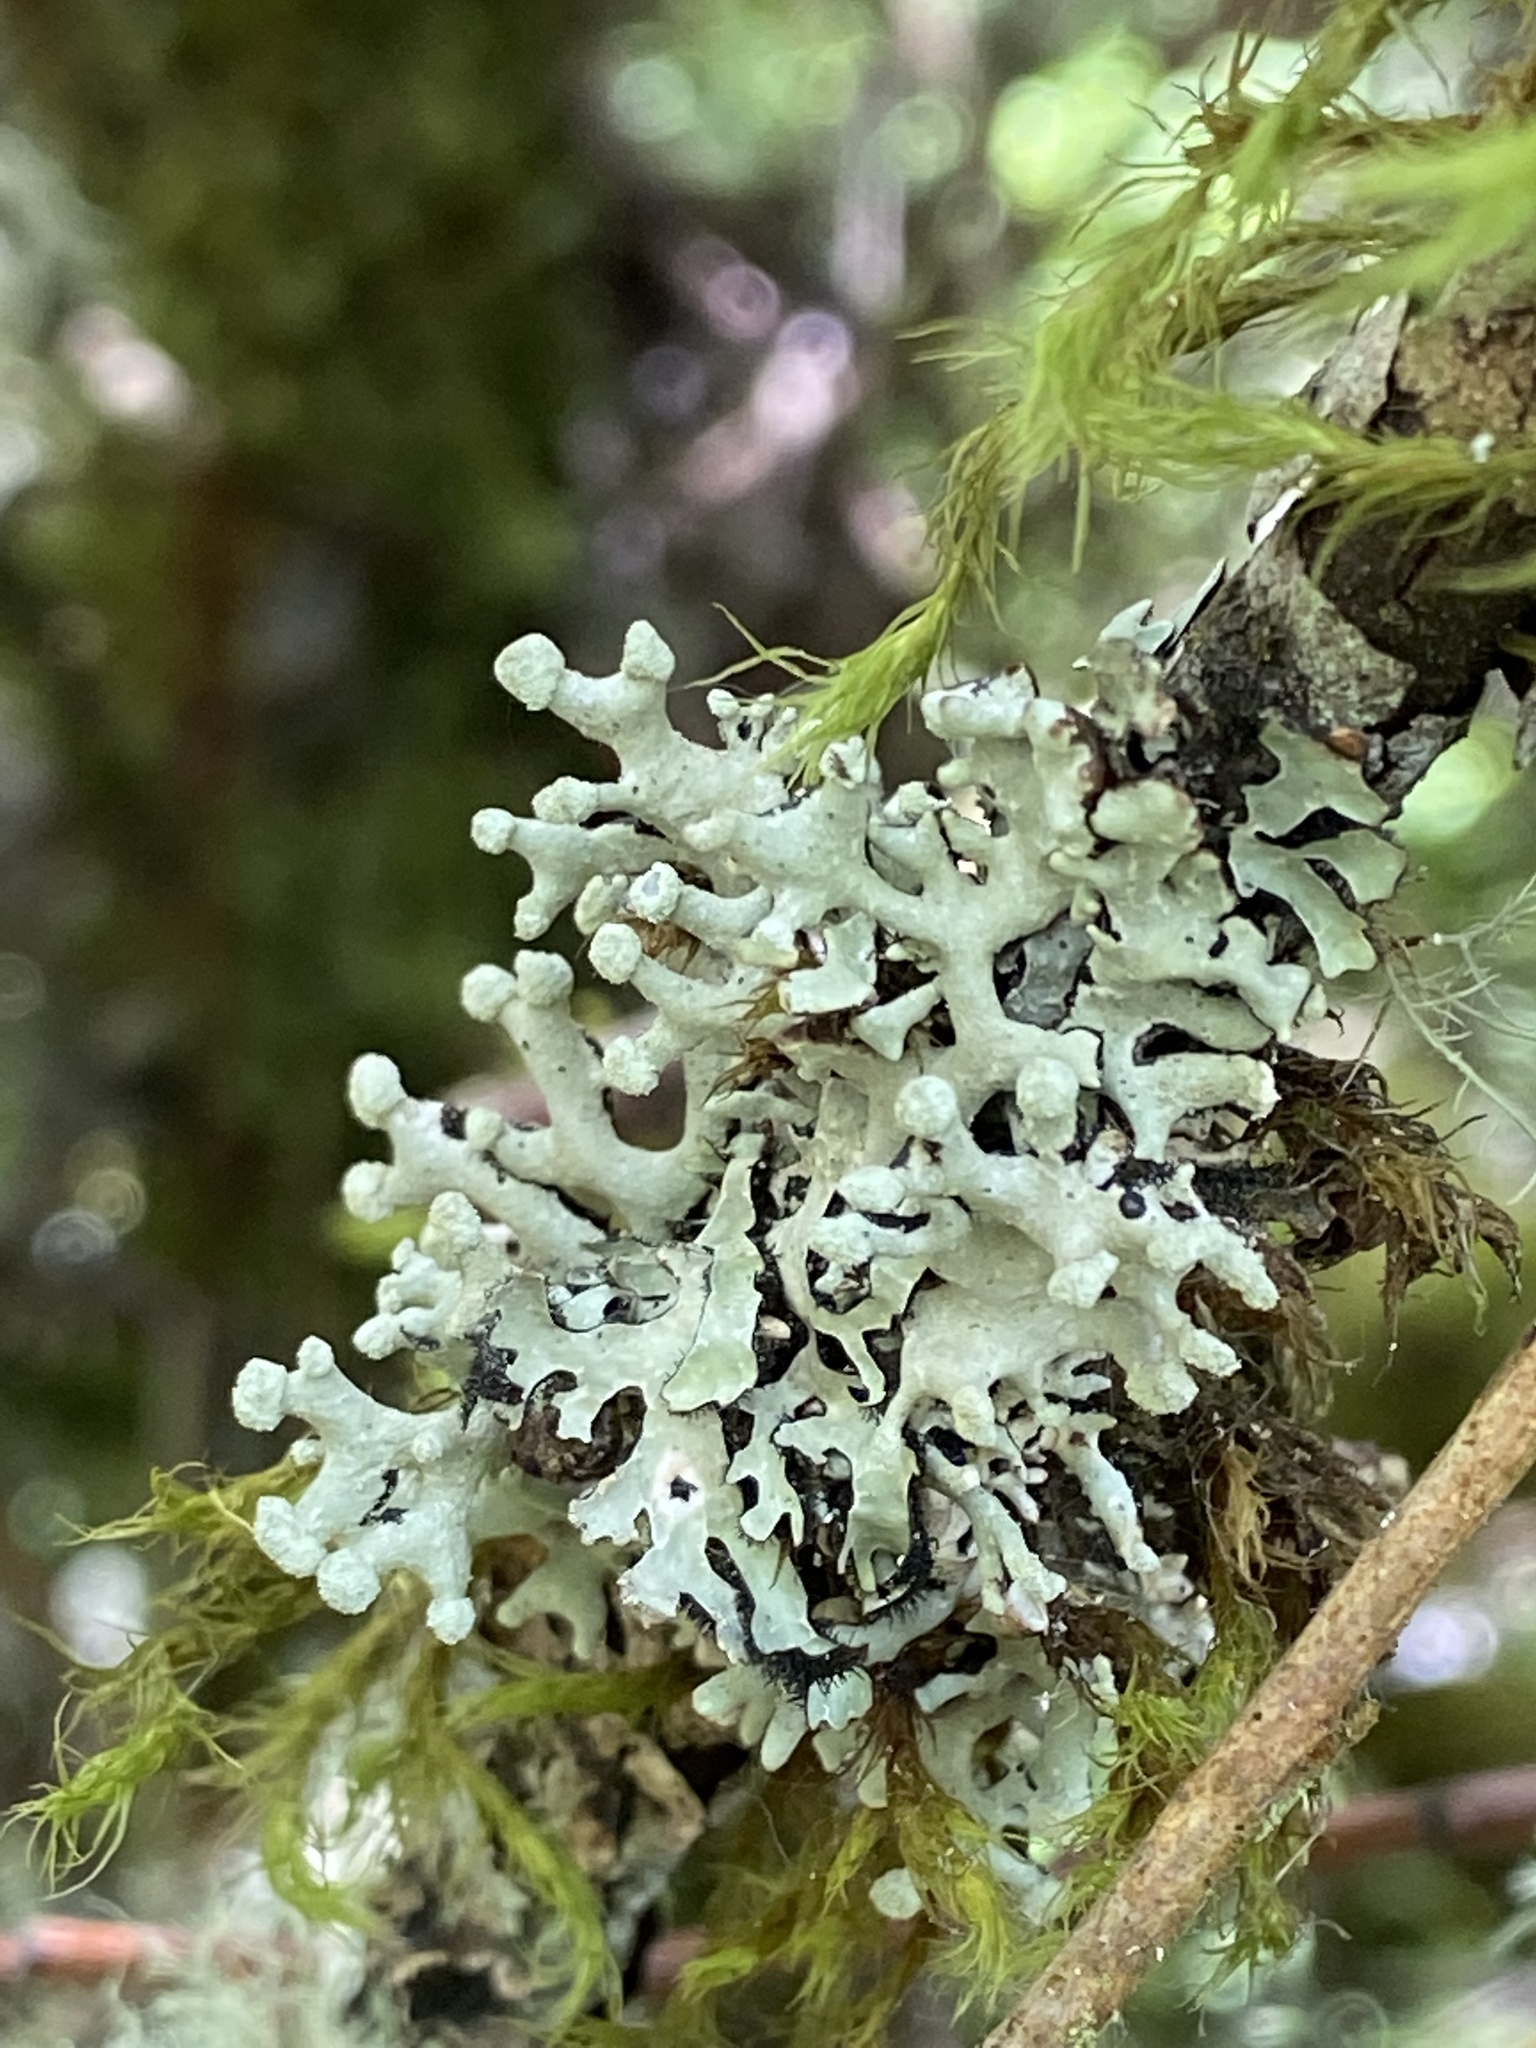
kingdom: Fungi
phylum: Ascomycota
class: Lecanoromycetes
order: Lecanorales
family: Parmeliaceae
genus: Hypogymnia
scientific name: Hypogymnia tubulosa
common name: Powder-headed tube lichen
